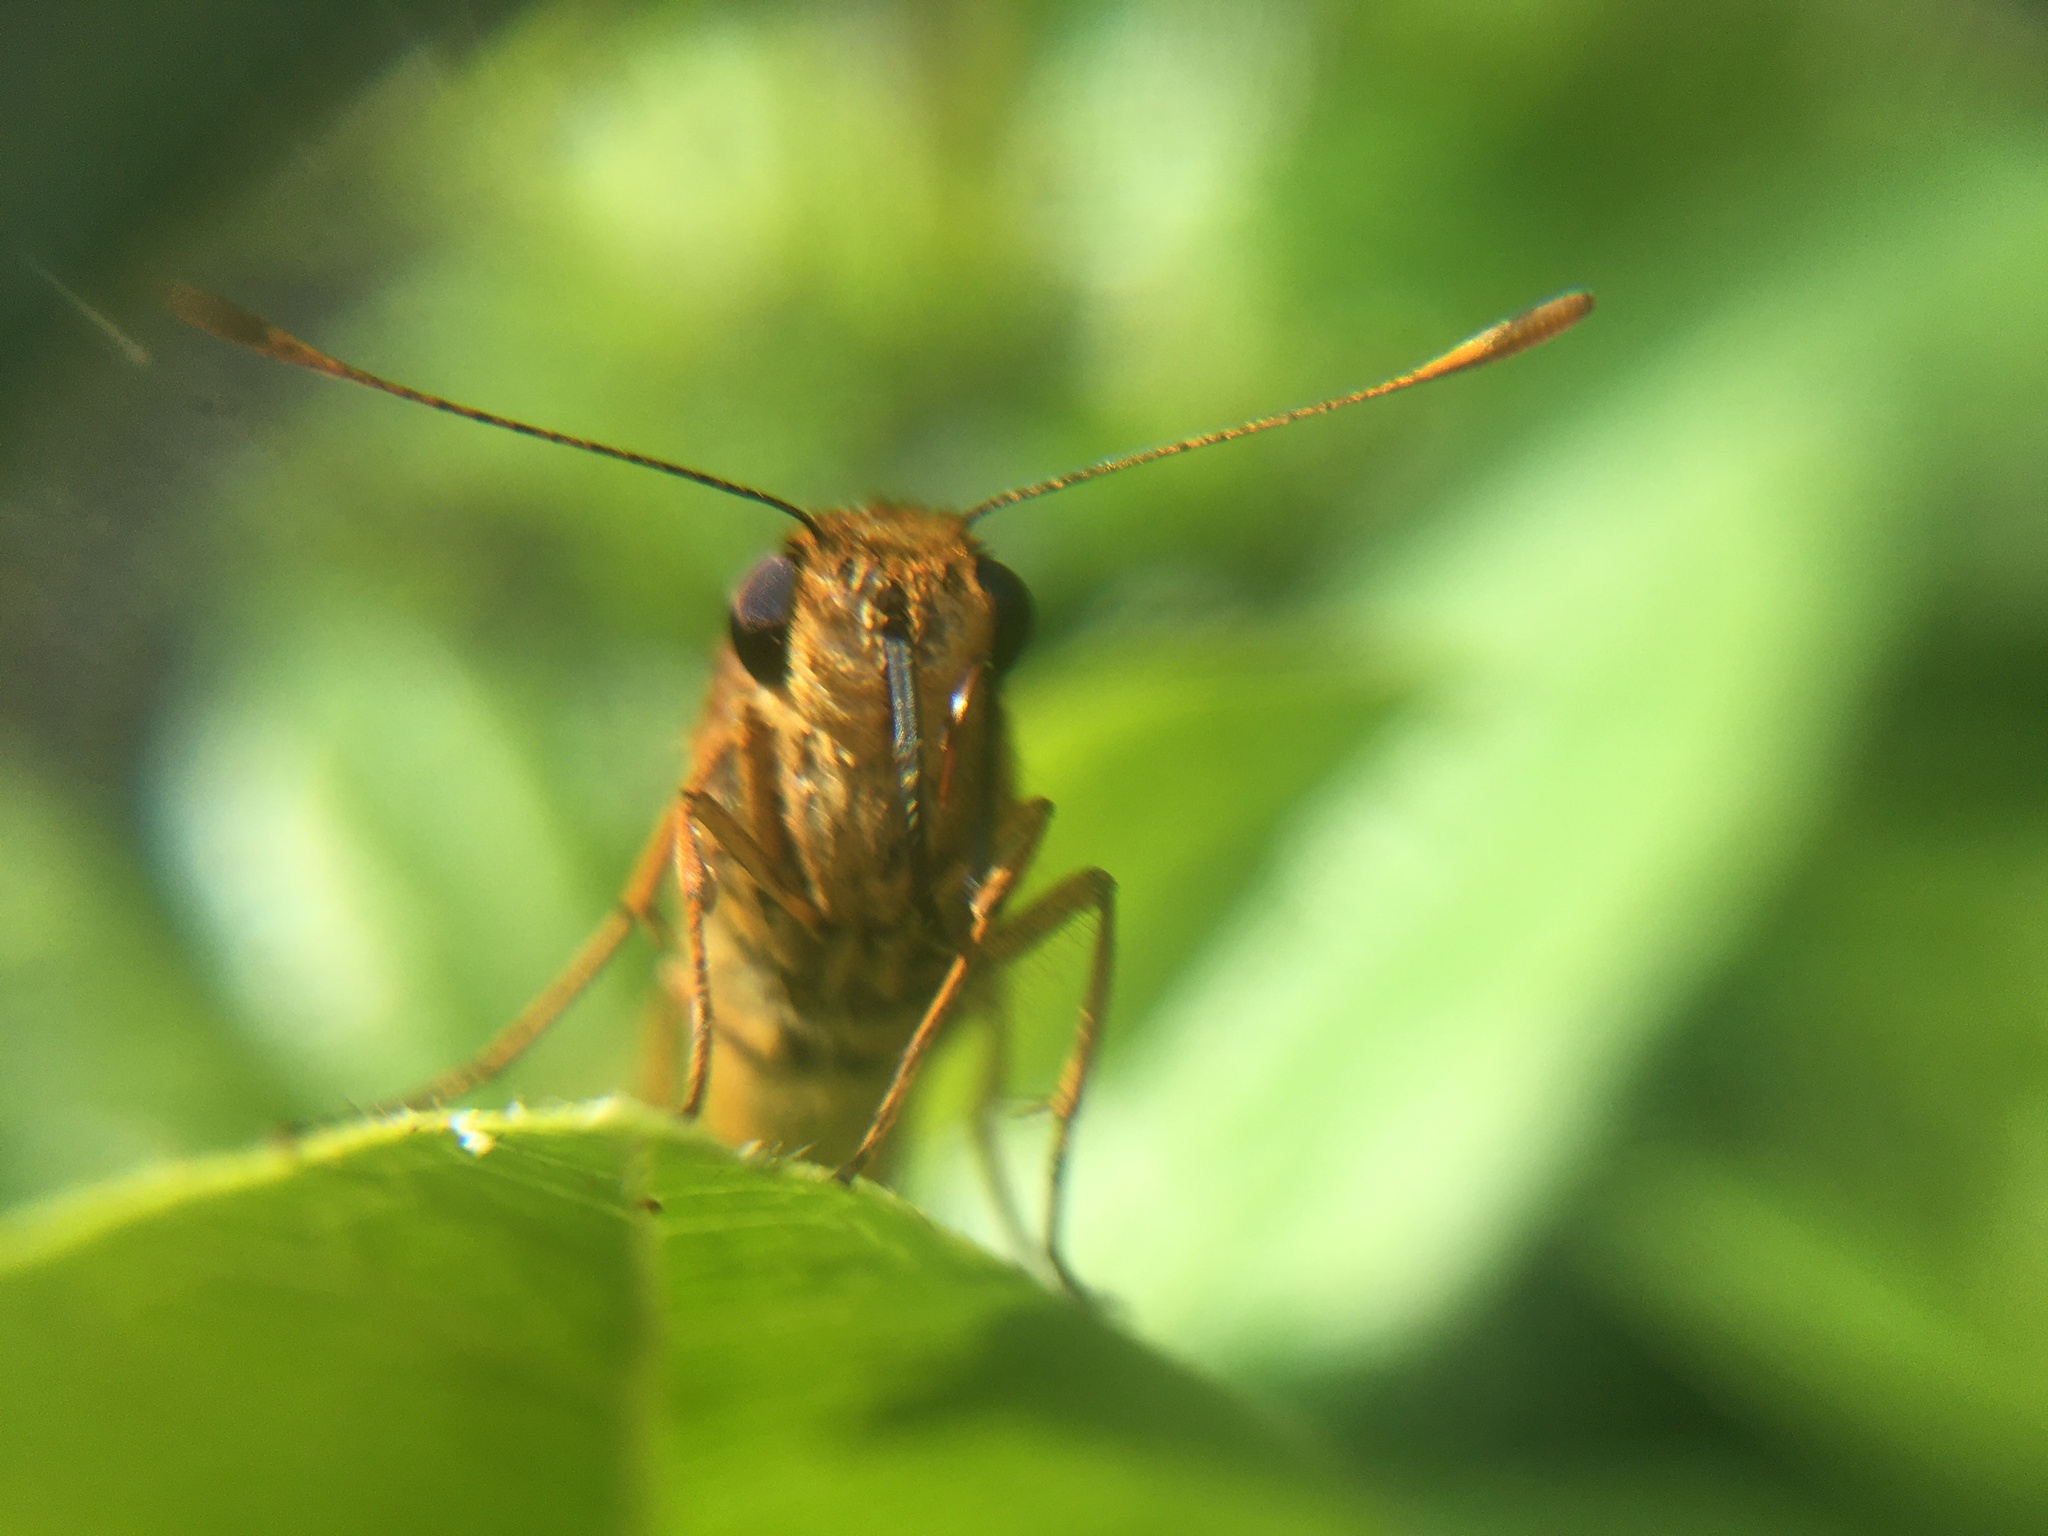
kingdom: Animalia
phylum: Arthropoda
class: Insecta
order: Lepidoptera
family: Hesperiidae
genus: Cephrenes
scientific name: Cephrenes augiades
